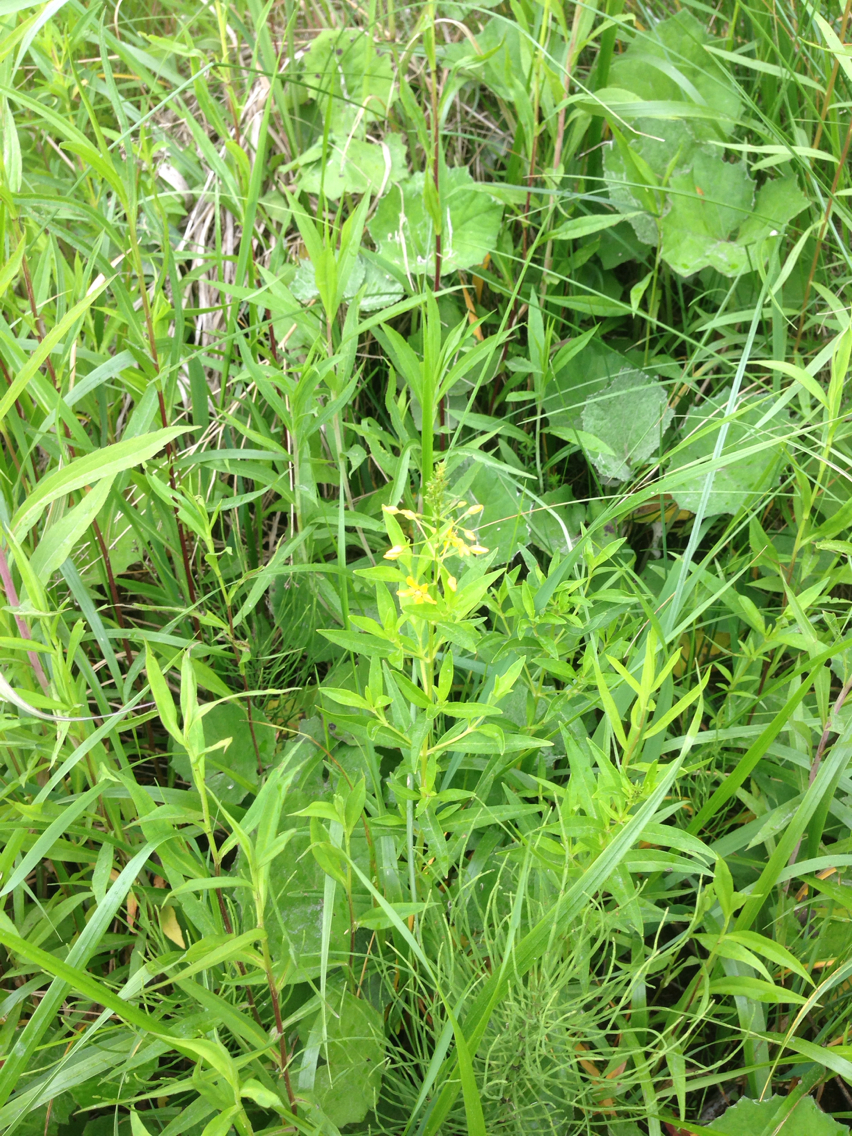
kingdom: Plantae
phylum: Tracheophyta
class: Magnoliopsida
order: Ericales
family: Primulaceae
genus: Lysimachia
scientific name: Lysimachia terrestris
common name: Lake loosestrife
